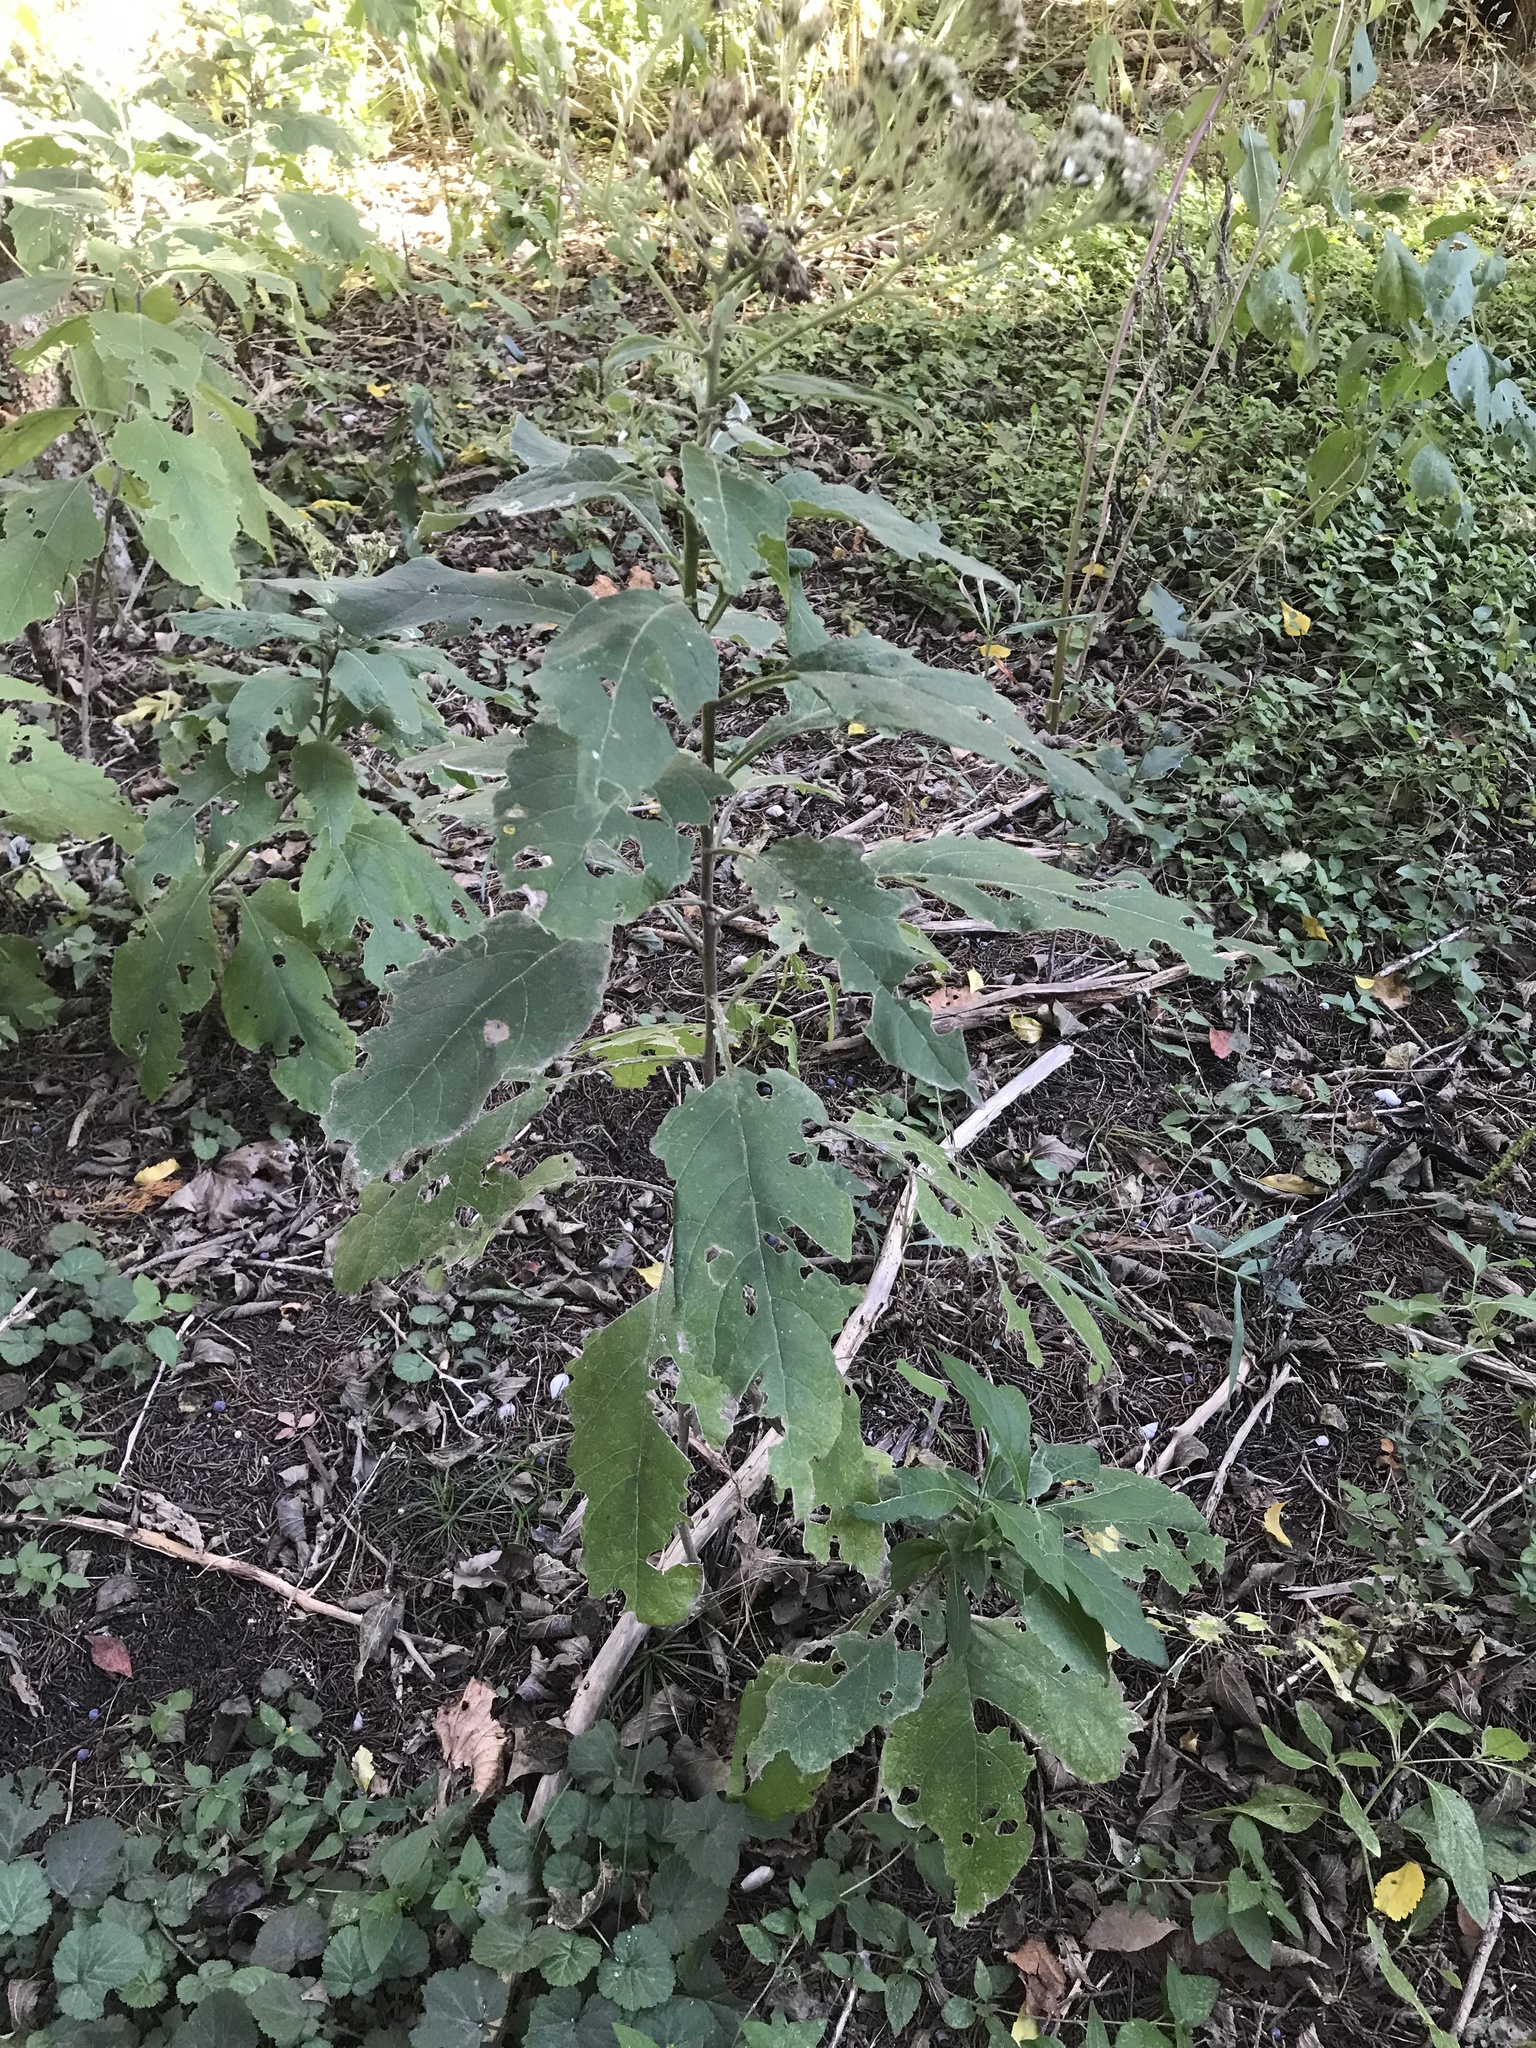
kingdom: Plantae
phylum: Tracheophyta
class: Magnoliopsida
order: Asterales
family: Asteraceae
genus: Verbesina
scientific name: Verbesina virginica
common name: Frostweed
